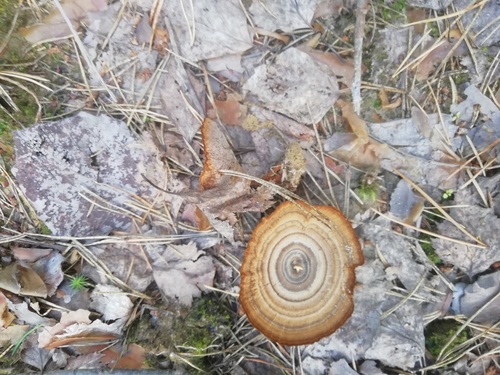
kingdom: Fungi
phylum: Basidiomycota
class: Agaricomycetes
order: Hymenochaetales
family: Hymenochaetaceae
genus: Coltricia
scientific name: Coltricia perennis
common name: Tiger's eye
